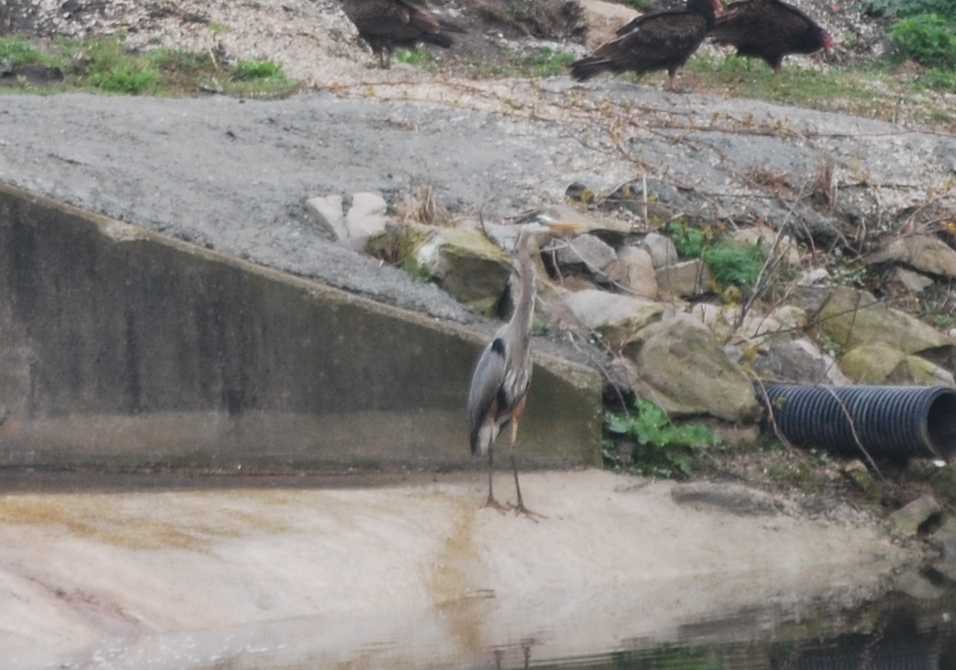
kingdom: Animalia
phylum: Chordata
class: Aves
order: Pelecaniformes
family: Ardeidae
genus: Ardea
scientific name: Ardea herodias
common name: Great blue heron
